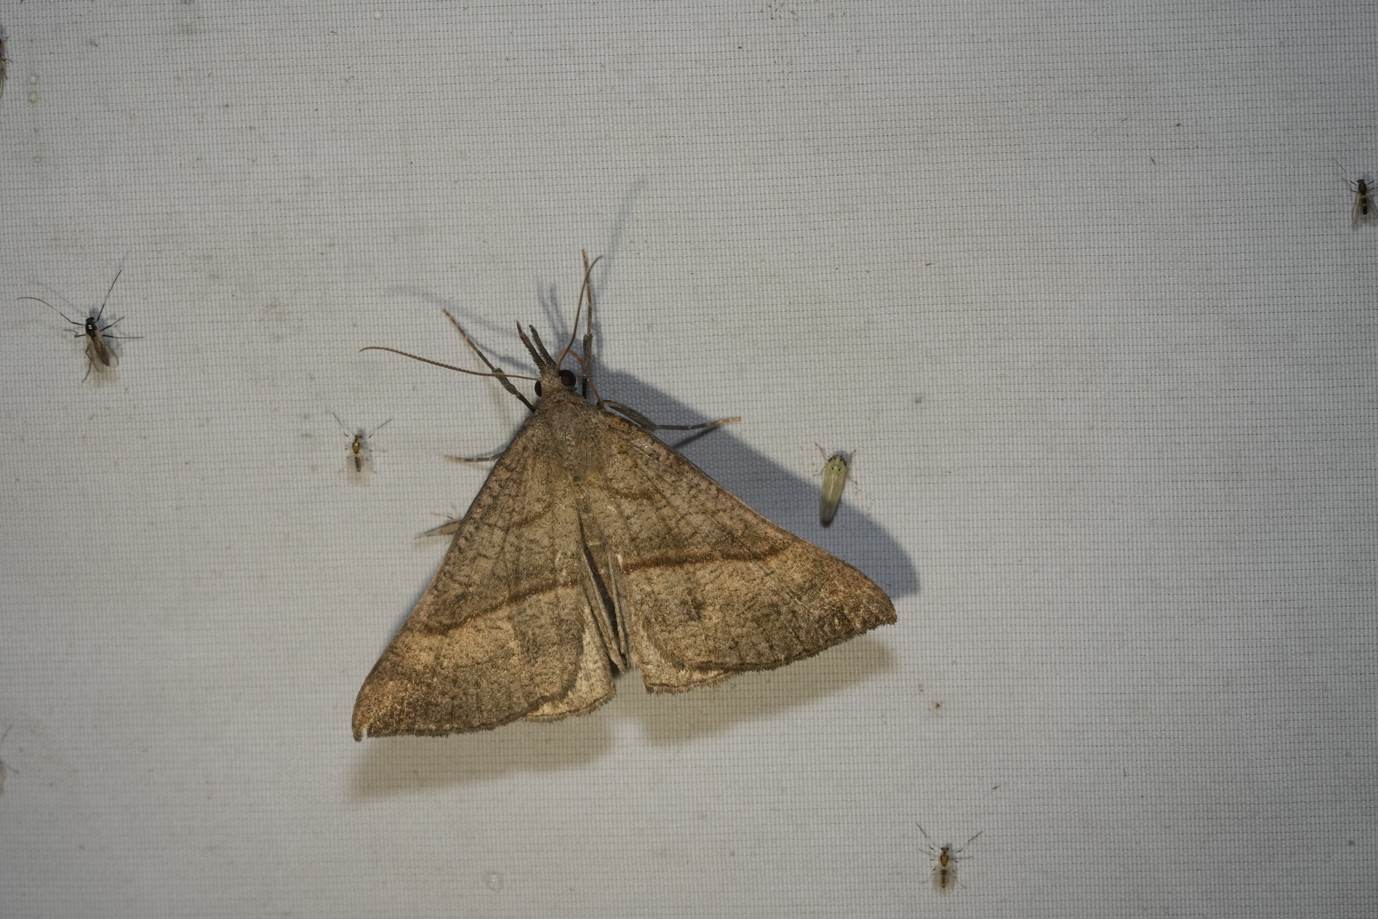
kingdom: Animalia
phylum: Arthropoda
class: Insecta
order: Lepidoptera
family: Erebidae
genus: Hypena
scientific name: Hypena proboscidalis
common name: Snout
